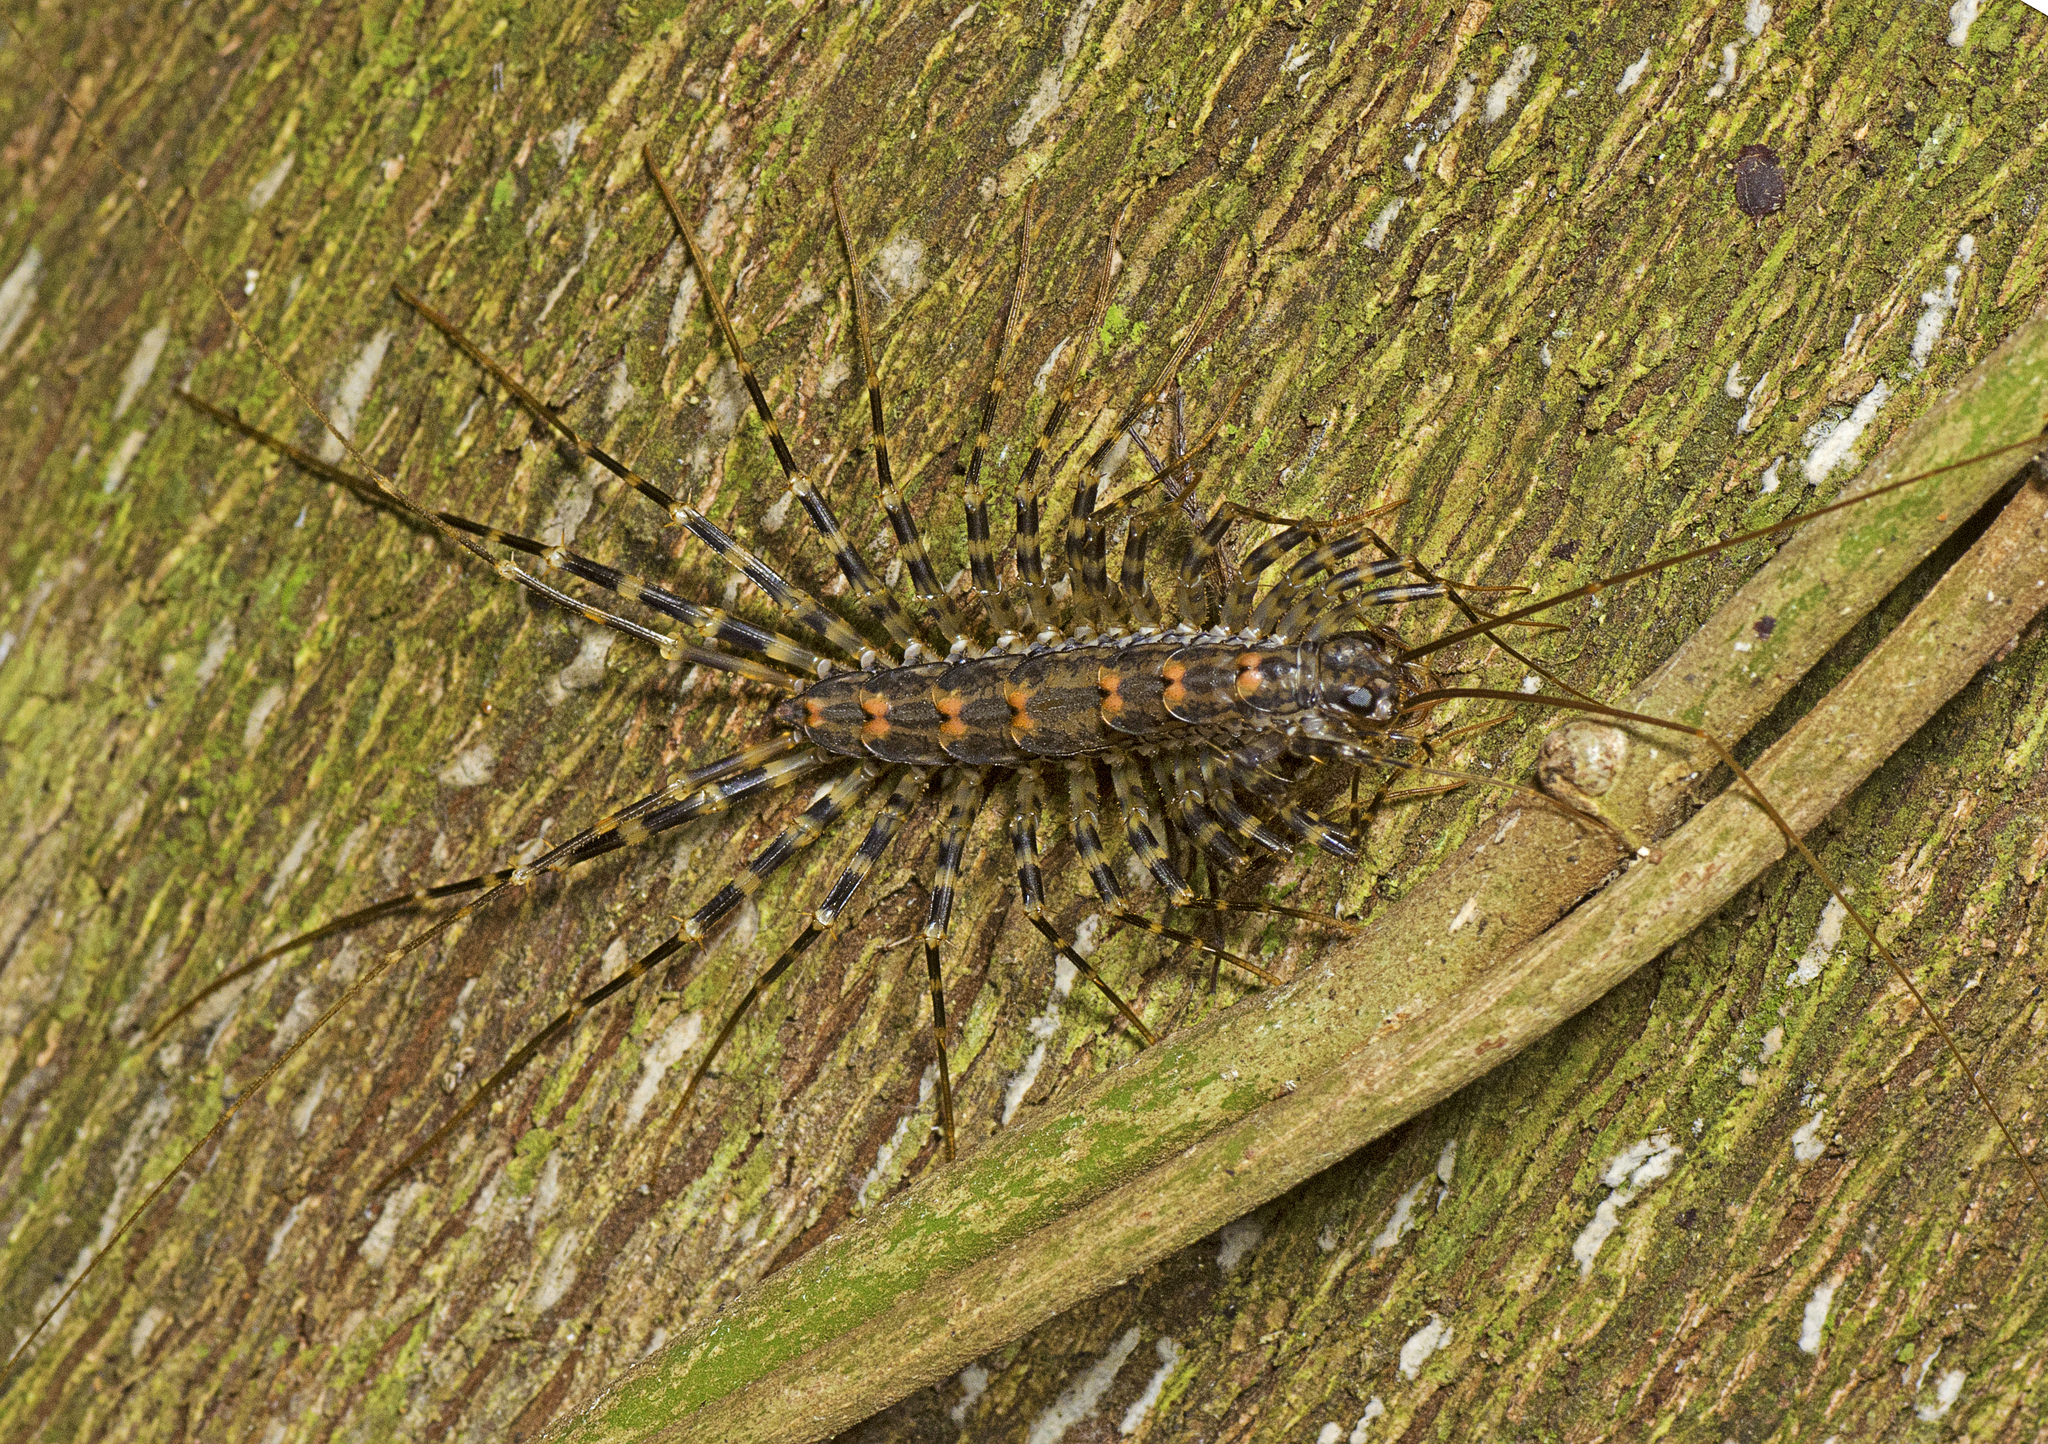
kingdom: Animalia
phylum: Arthropoda
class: Chilopoda
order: Scutigeromorpha
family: Scutigeridae
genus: Allothereua
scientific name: Allothereua maculata
